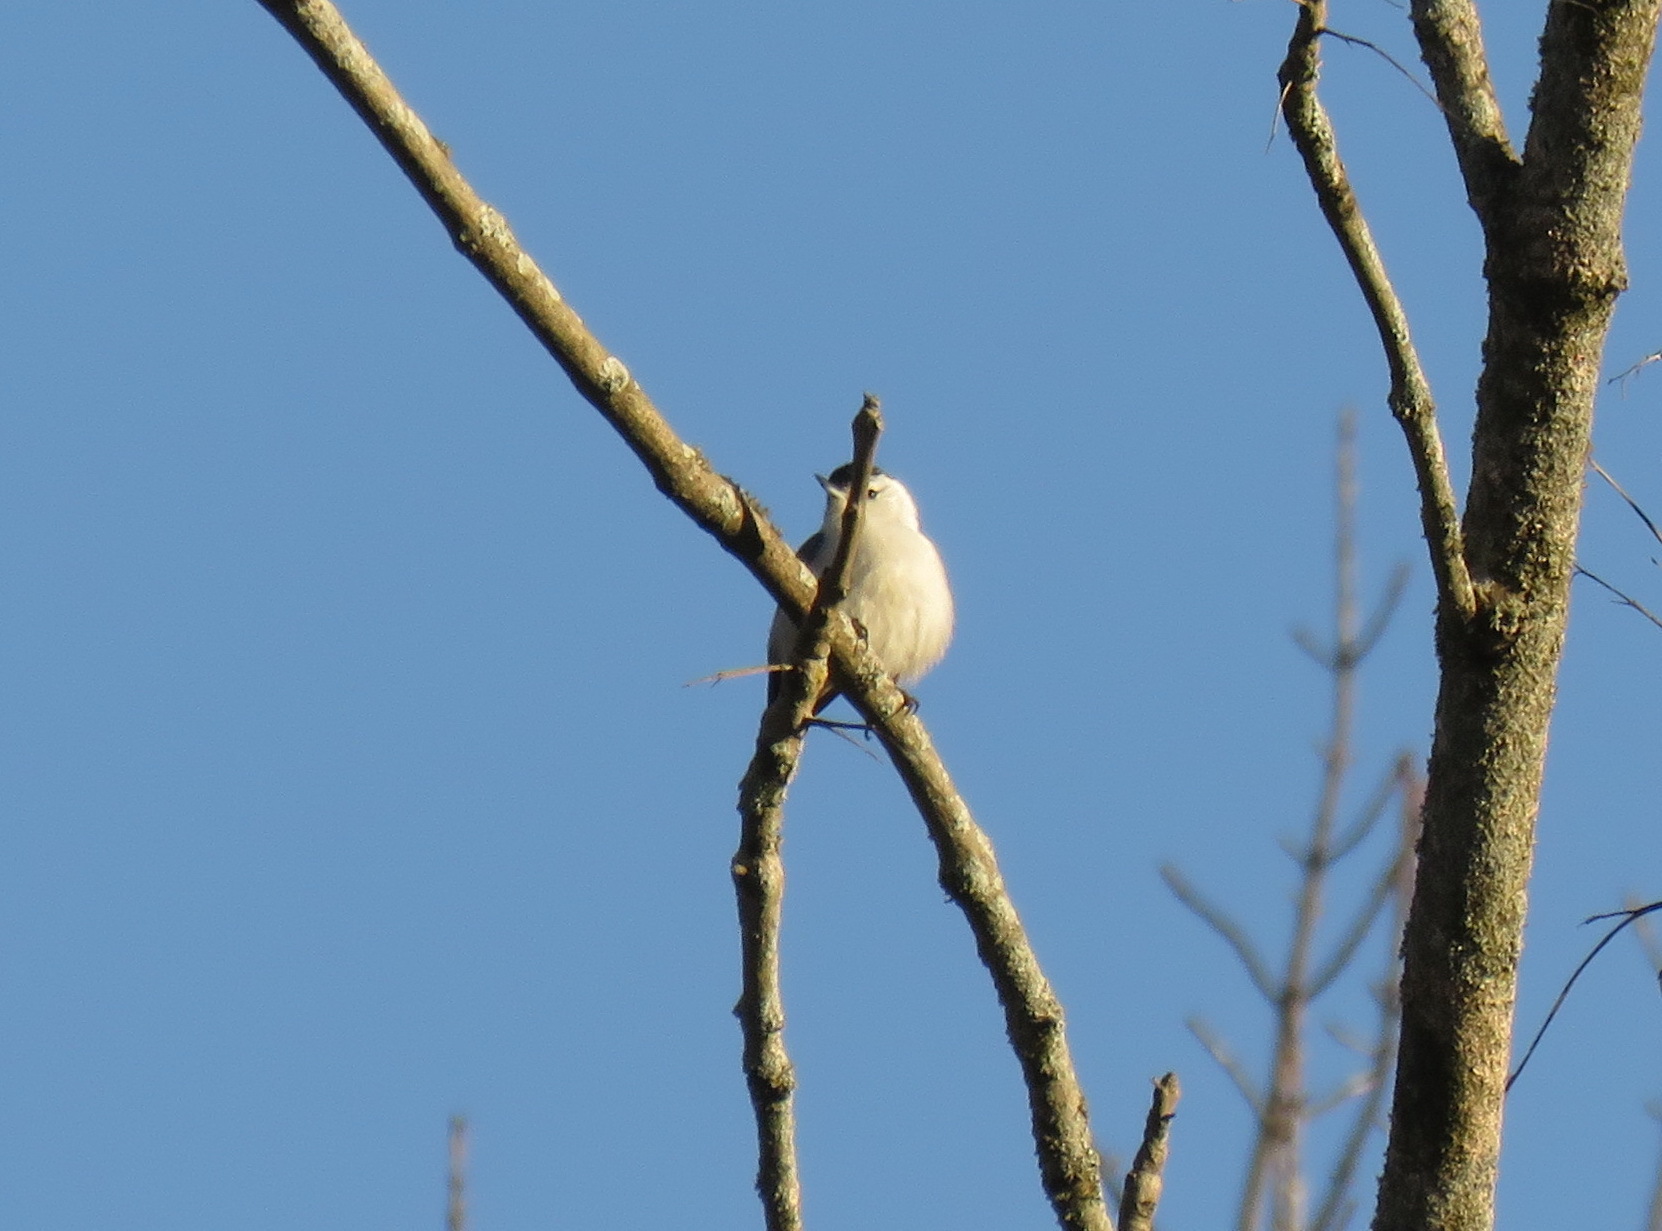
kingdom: Animalia
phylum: Chordata
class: Aves
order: Passeriformes
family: Sittidae
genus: Sitta
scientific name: Sitta carolinensis
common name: White-breasted nuthatch
